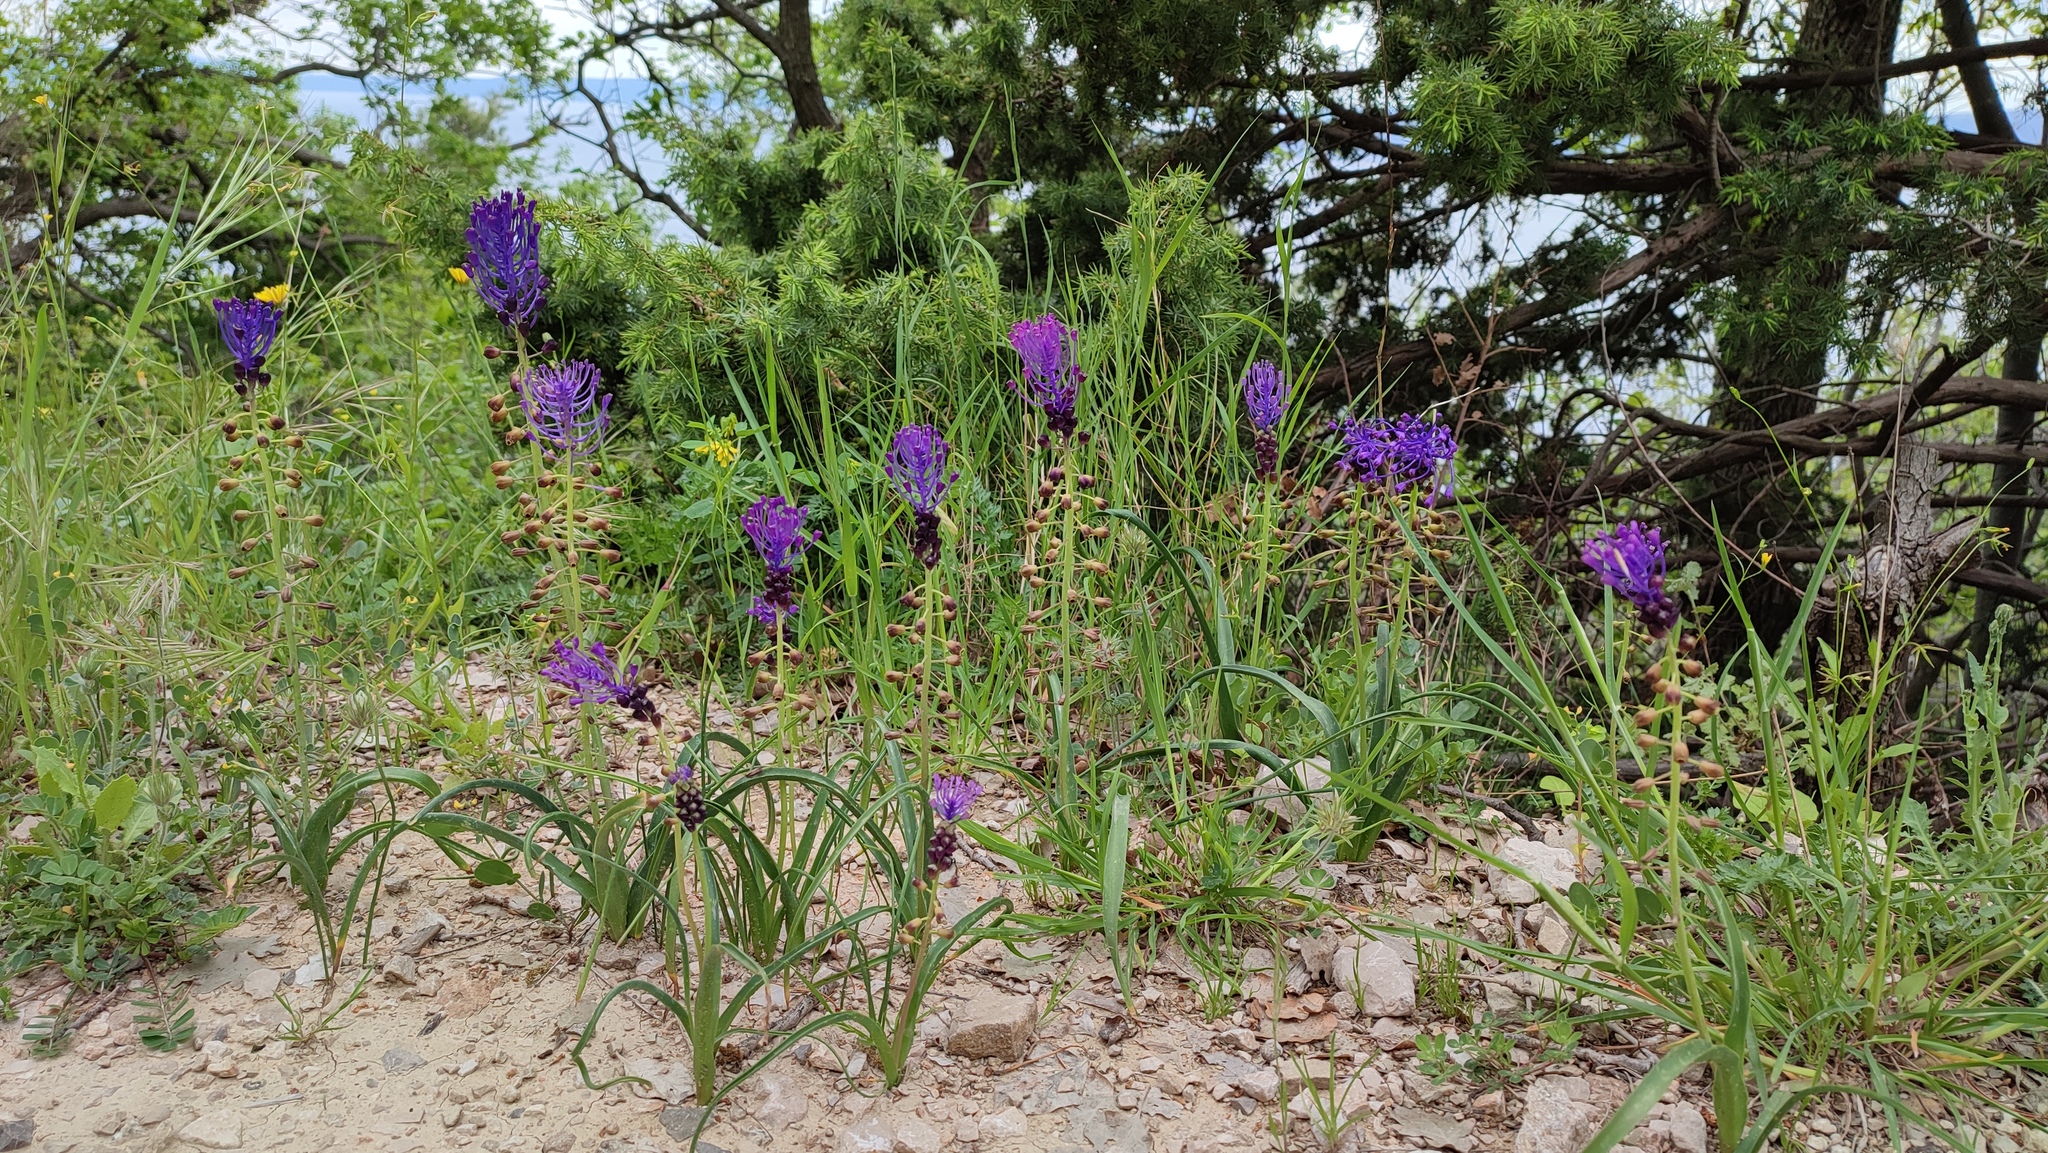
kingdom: Plantae
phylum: Tracheophyta
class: Liliopsida
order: Asparagales
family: Asparagaceae
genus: Muscari
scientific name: Muscari comosum
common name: Tassel hyacinth
